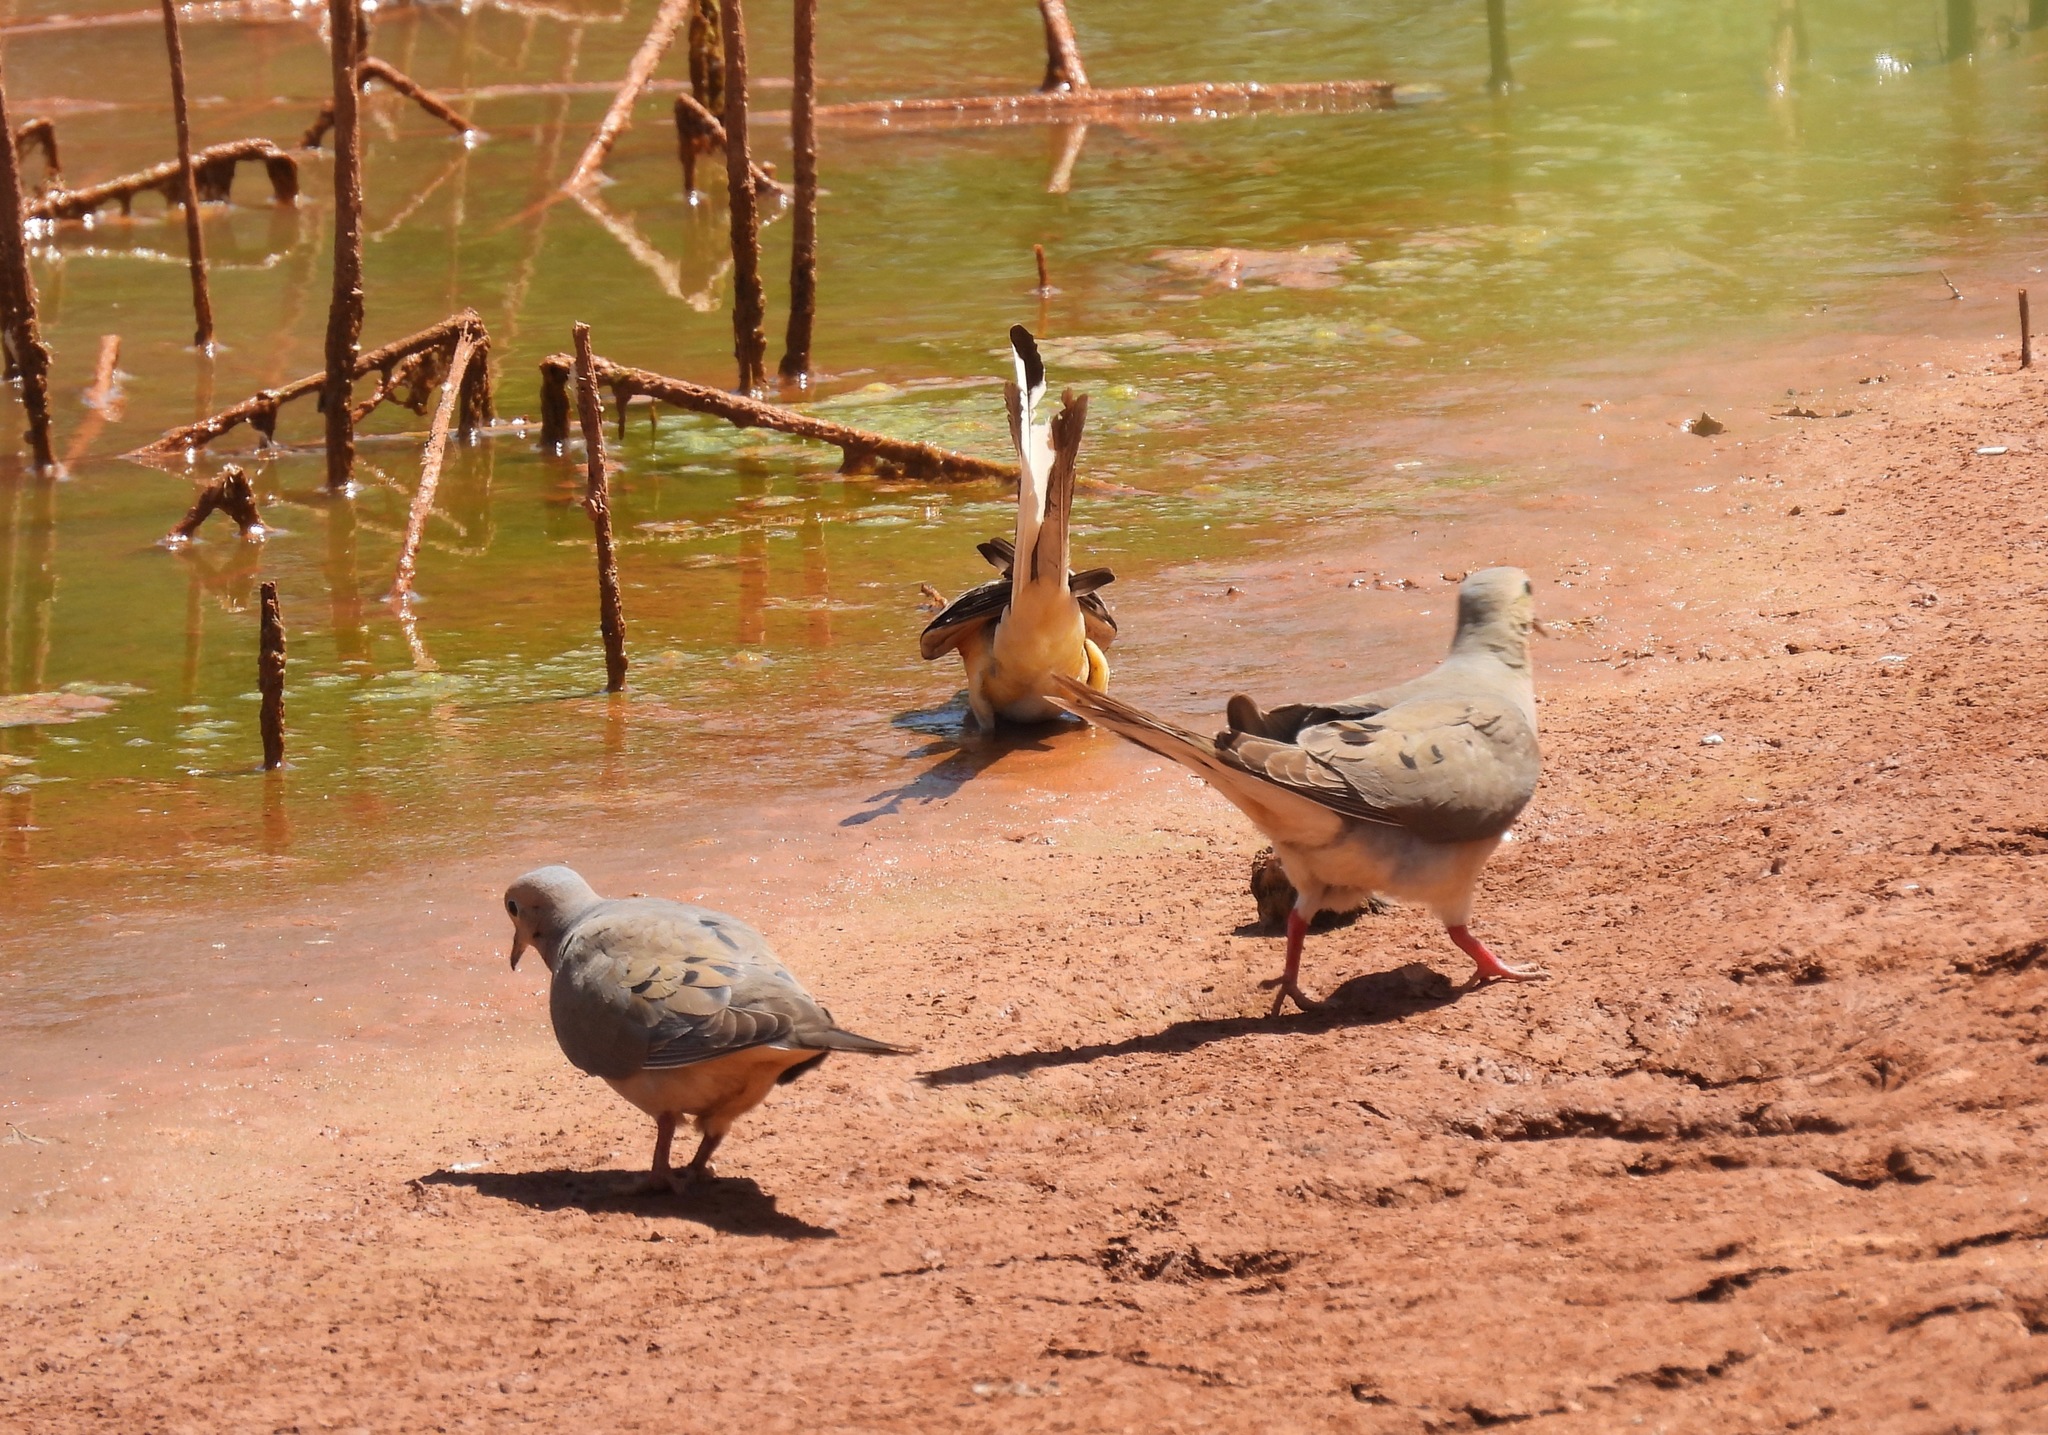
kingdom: Animalia
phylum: Chordata
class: Aves
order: Columbiformes
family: Columbidae
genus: Zenaida
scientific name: Zenaida macroura
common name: Mourning dove
